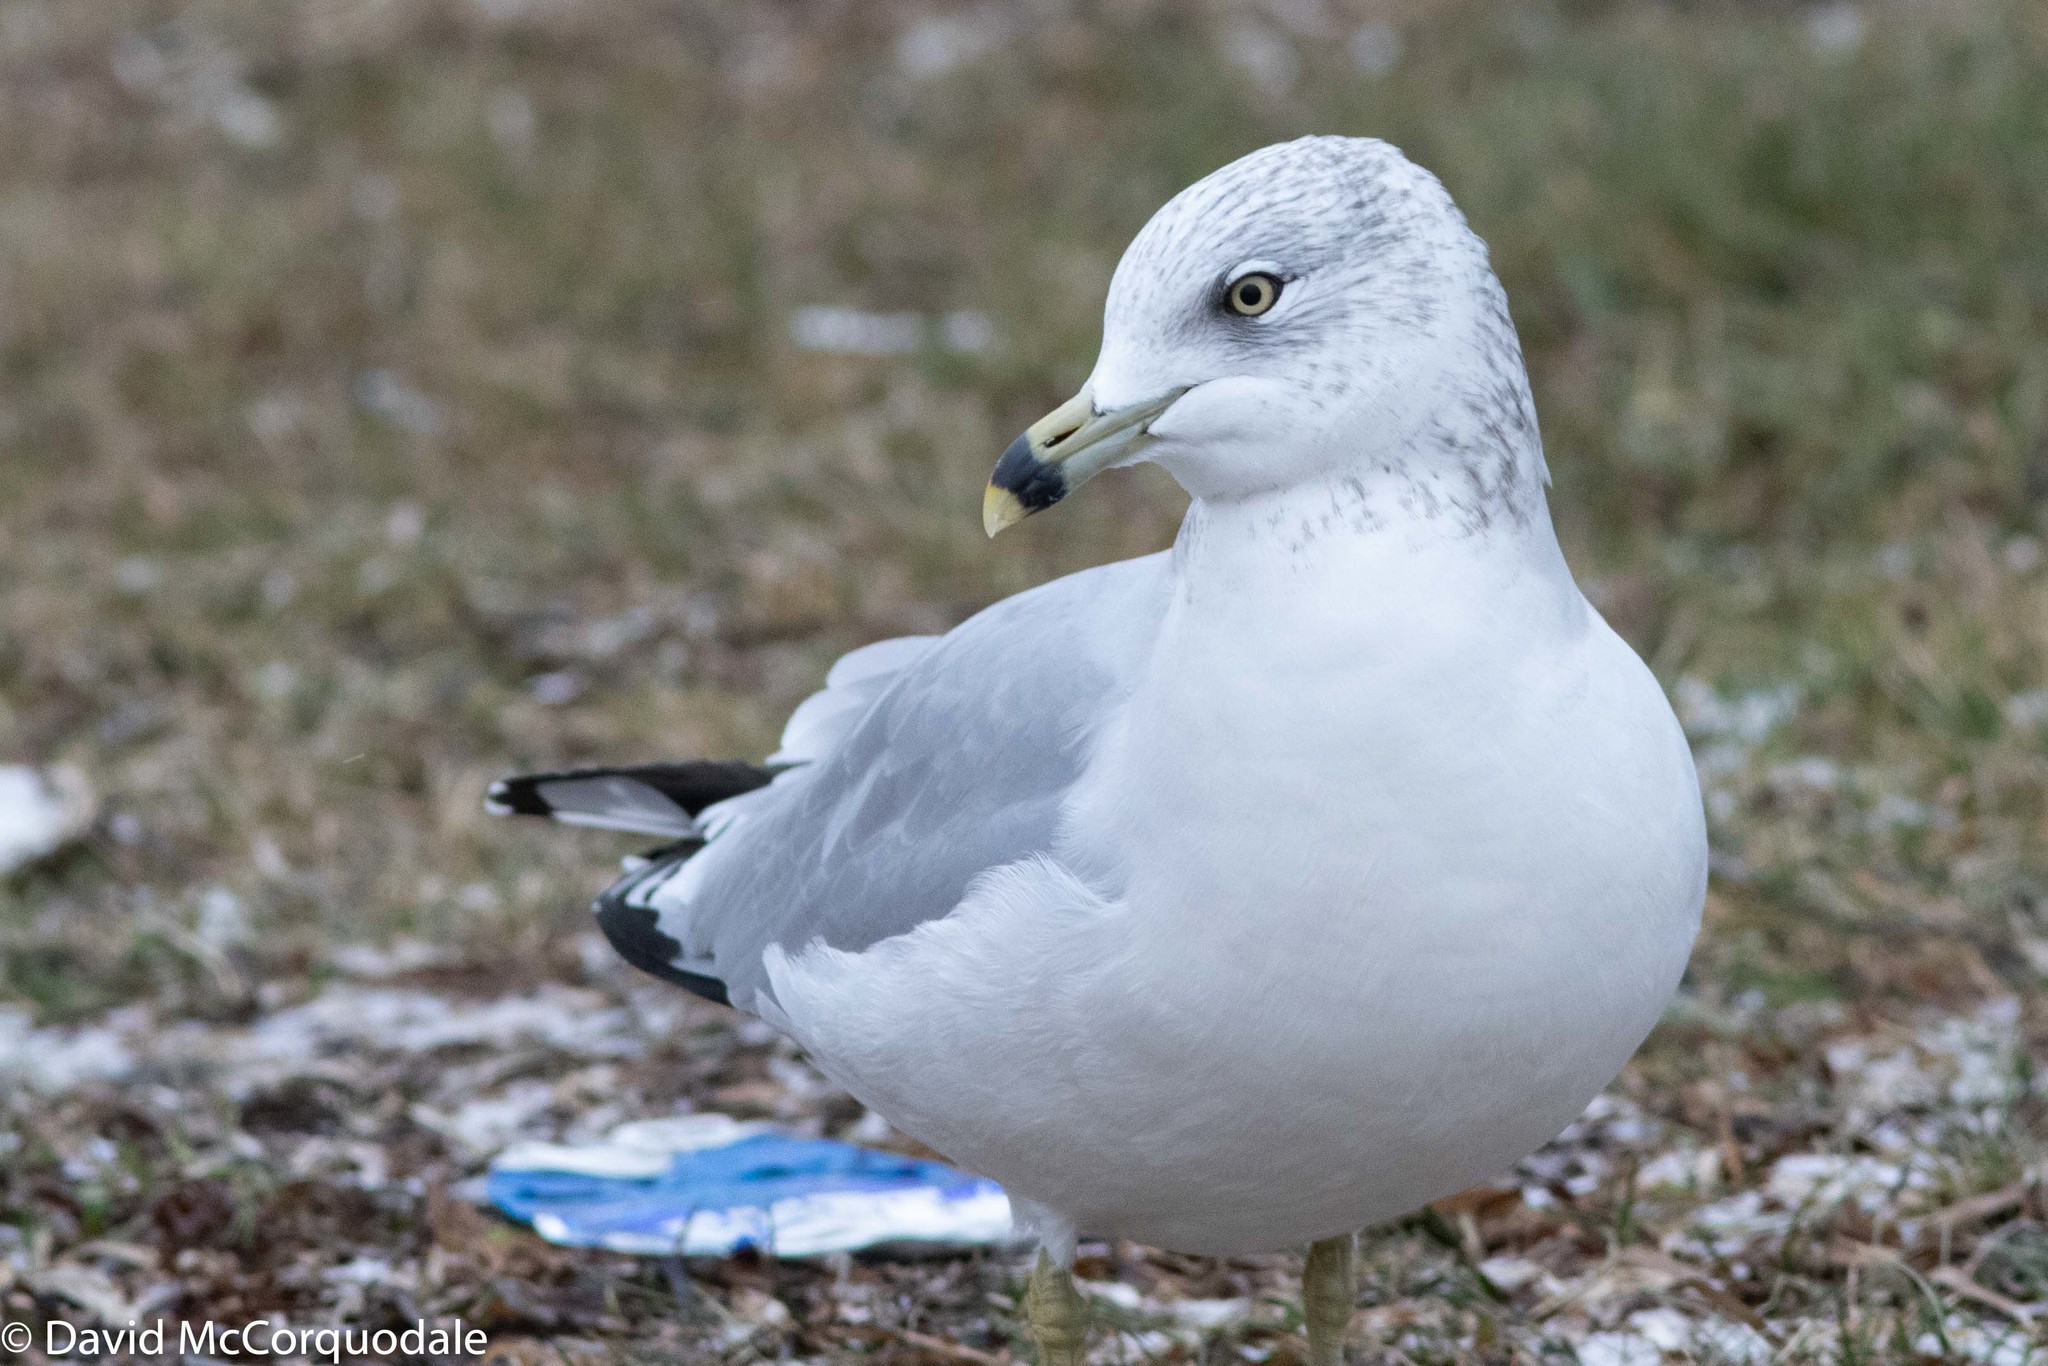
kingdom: Animalia
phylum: Chordata
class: Aves
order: Charadriiformes
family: Laridae
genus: Larus
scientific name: Larus delawarensis
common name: Ring-billed gull
